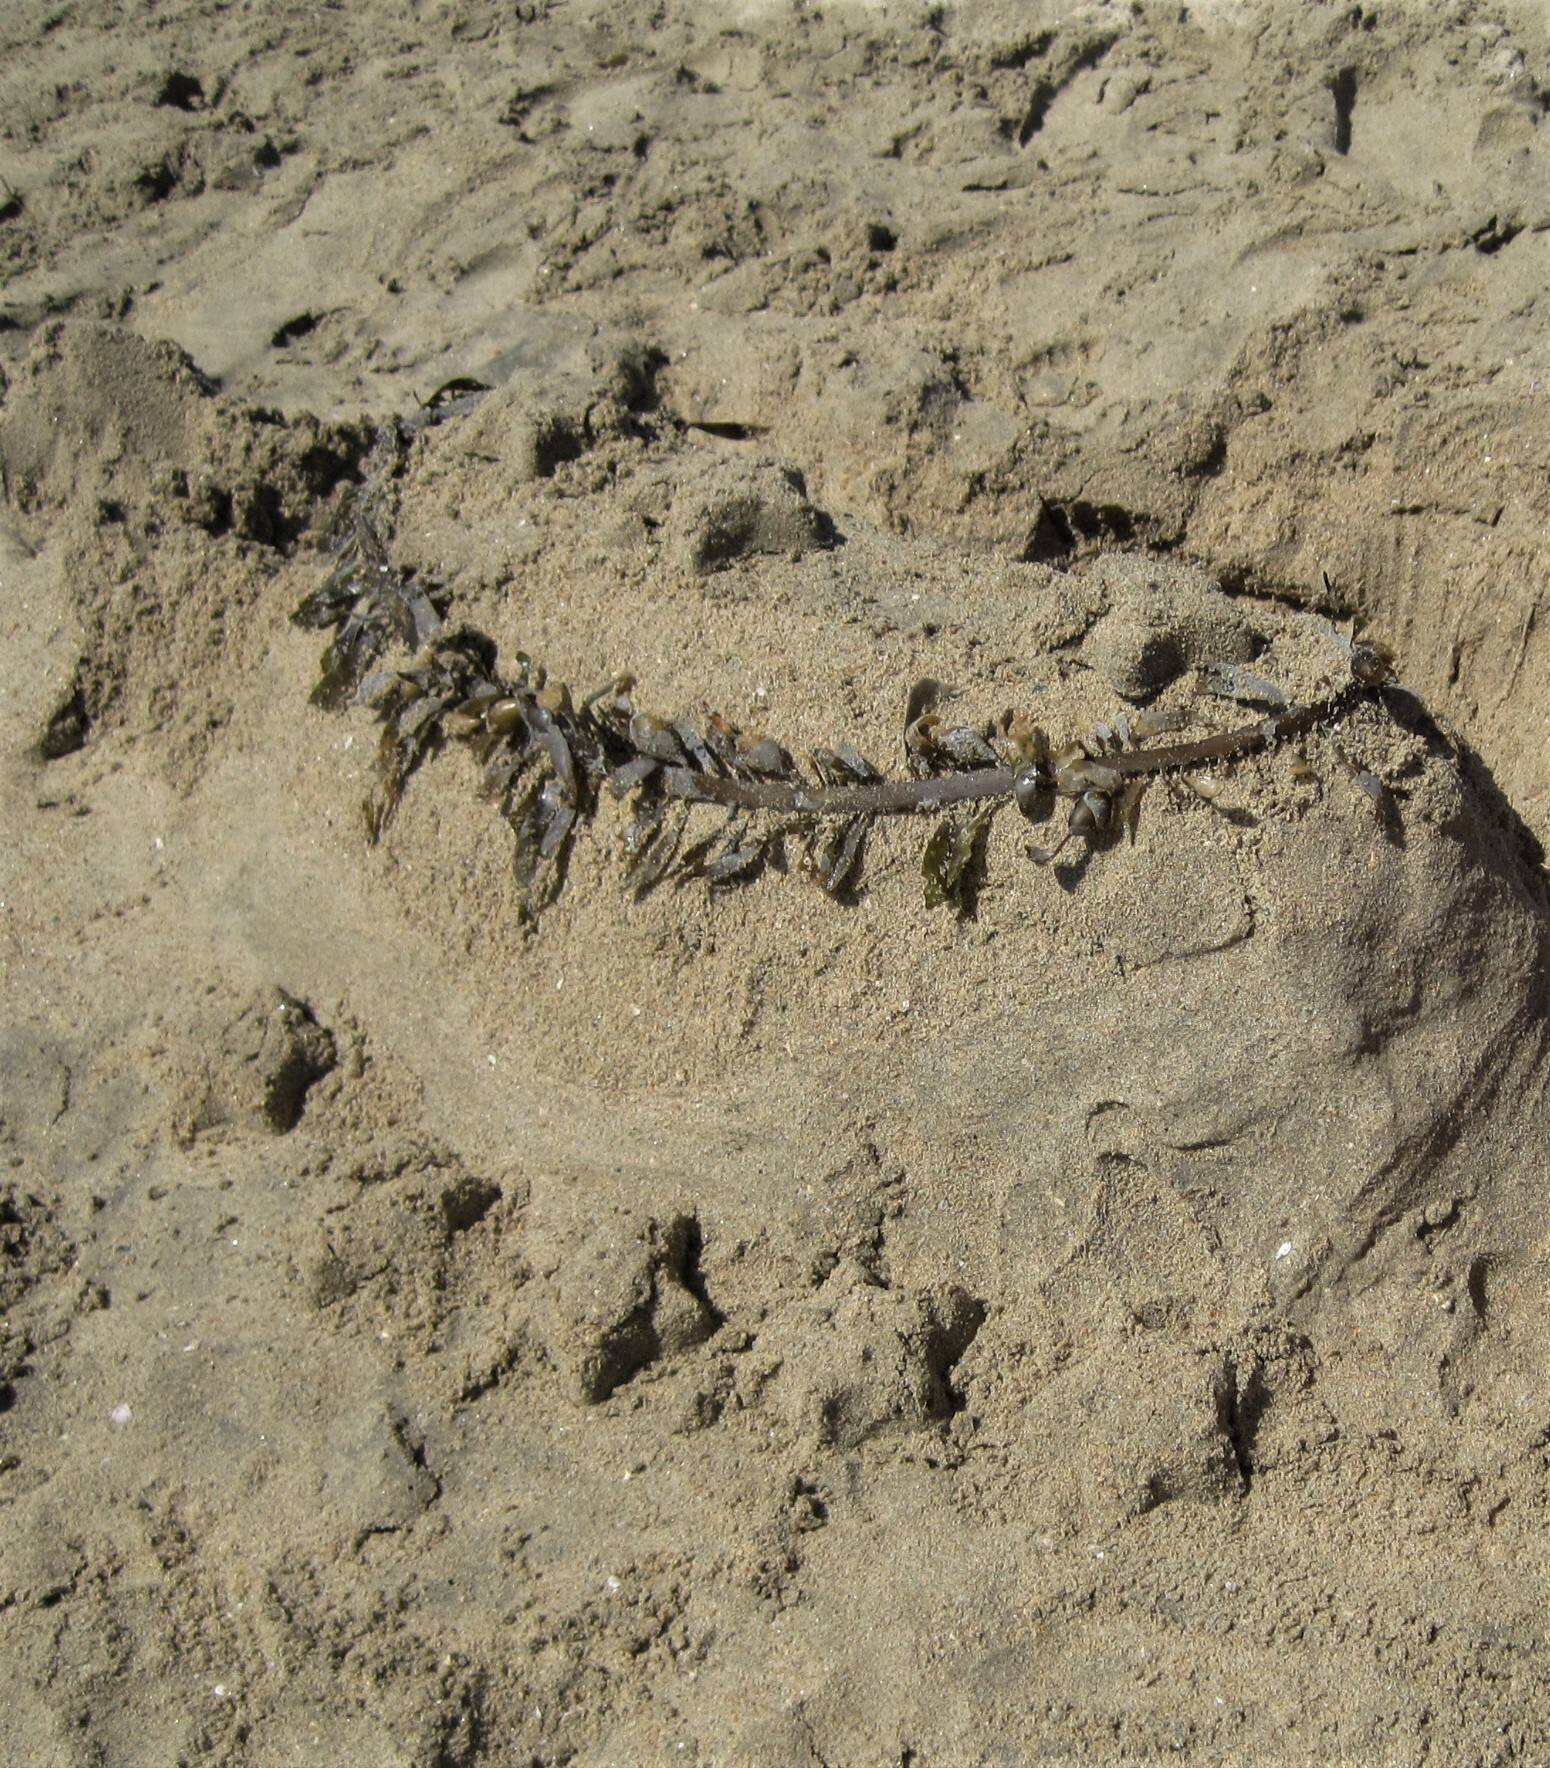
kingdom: Chromista
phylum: Ochrophyta
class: Phaeophyceae
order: Laminariales
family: Lessoniaceae
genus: Egregia
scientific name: Egregia menziesii
